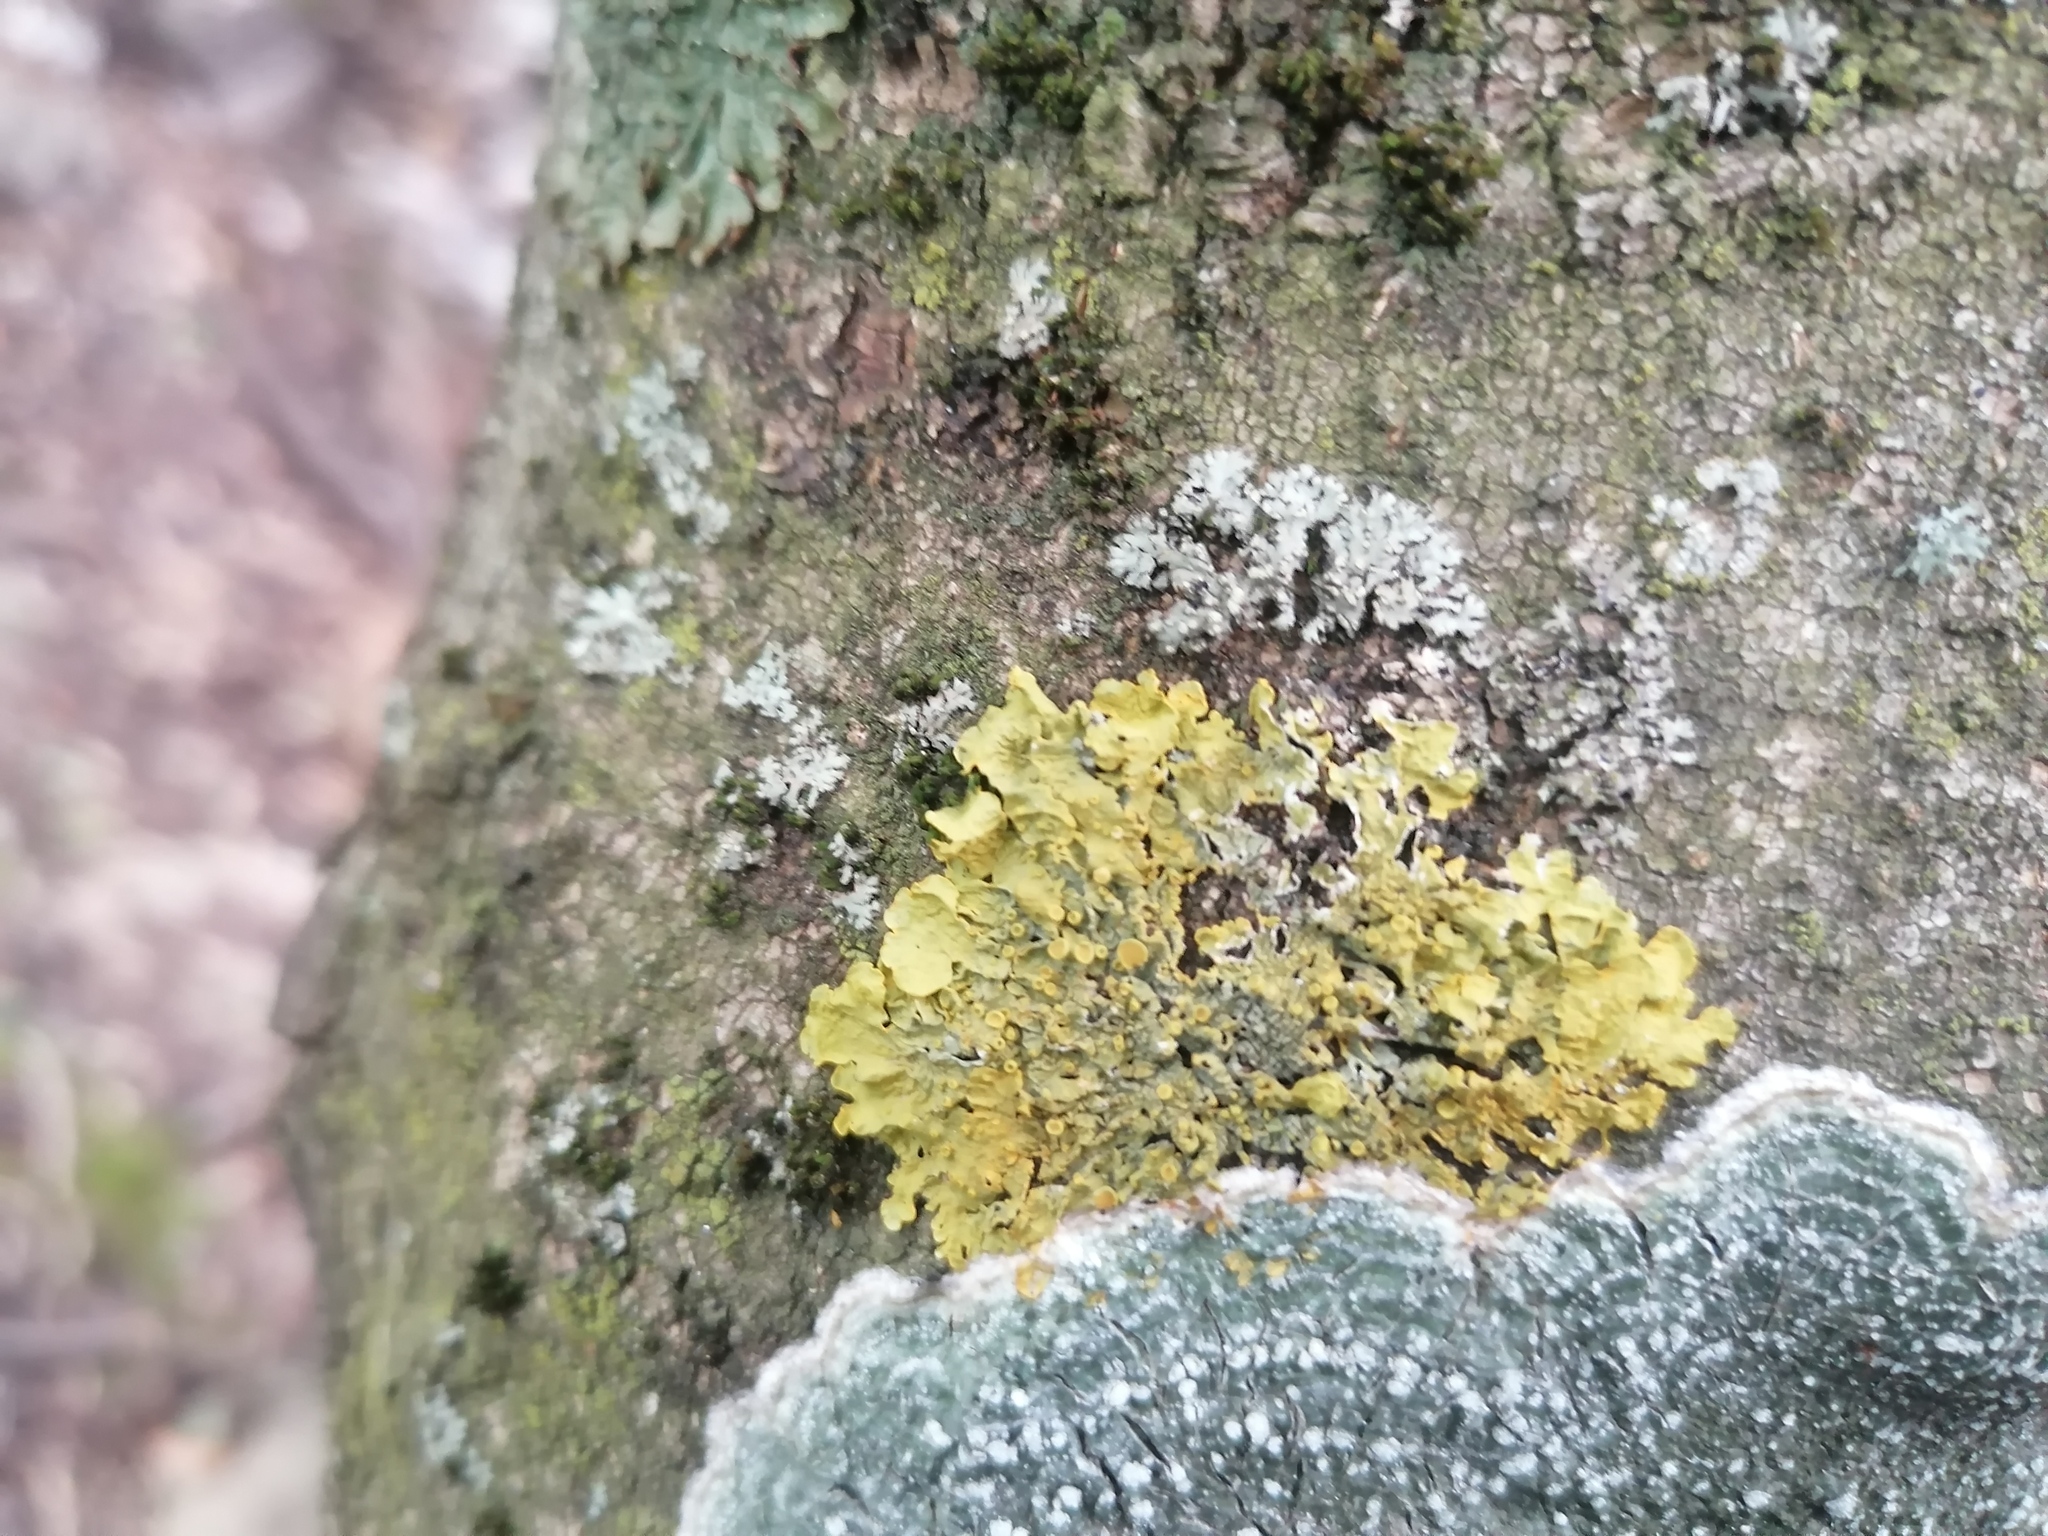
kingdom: Fungi
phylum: Ascomycota
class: Lecanoromycetes
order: Teloschistales
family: Teloschistaceae
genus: Xanthoria
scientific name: Xanthoria parietina
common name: Common orange lichen
